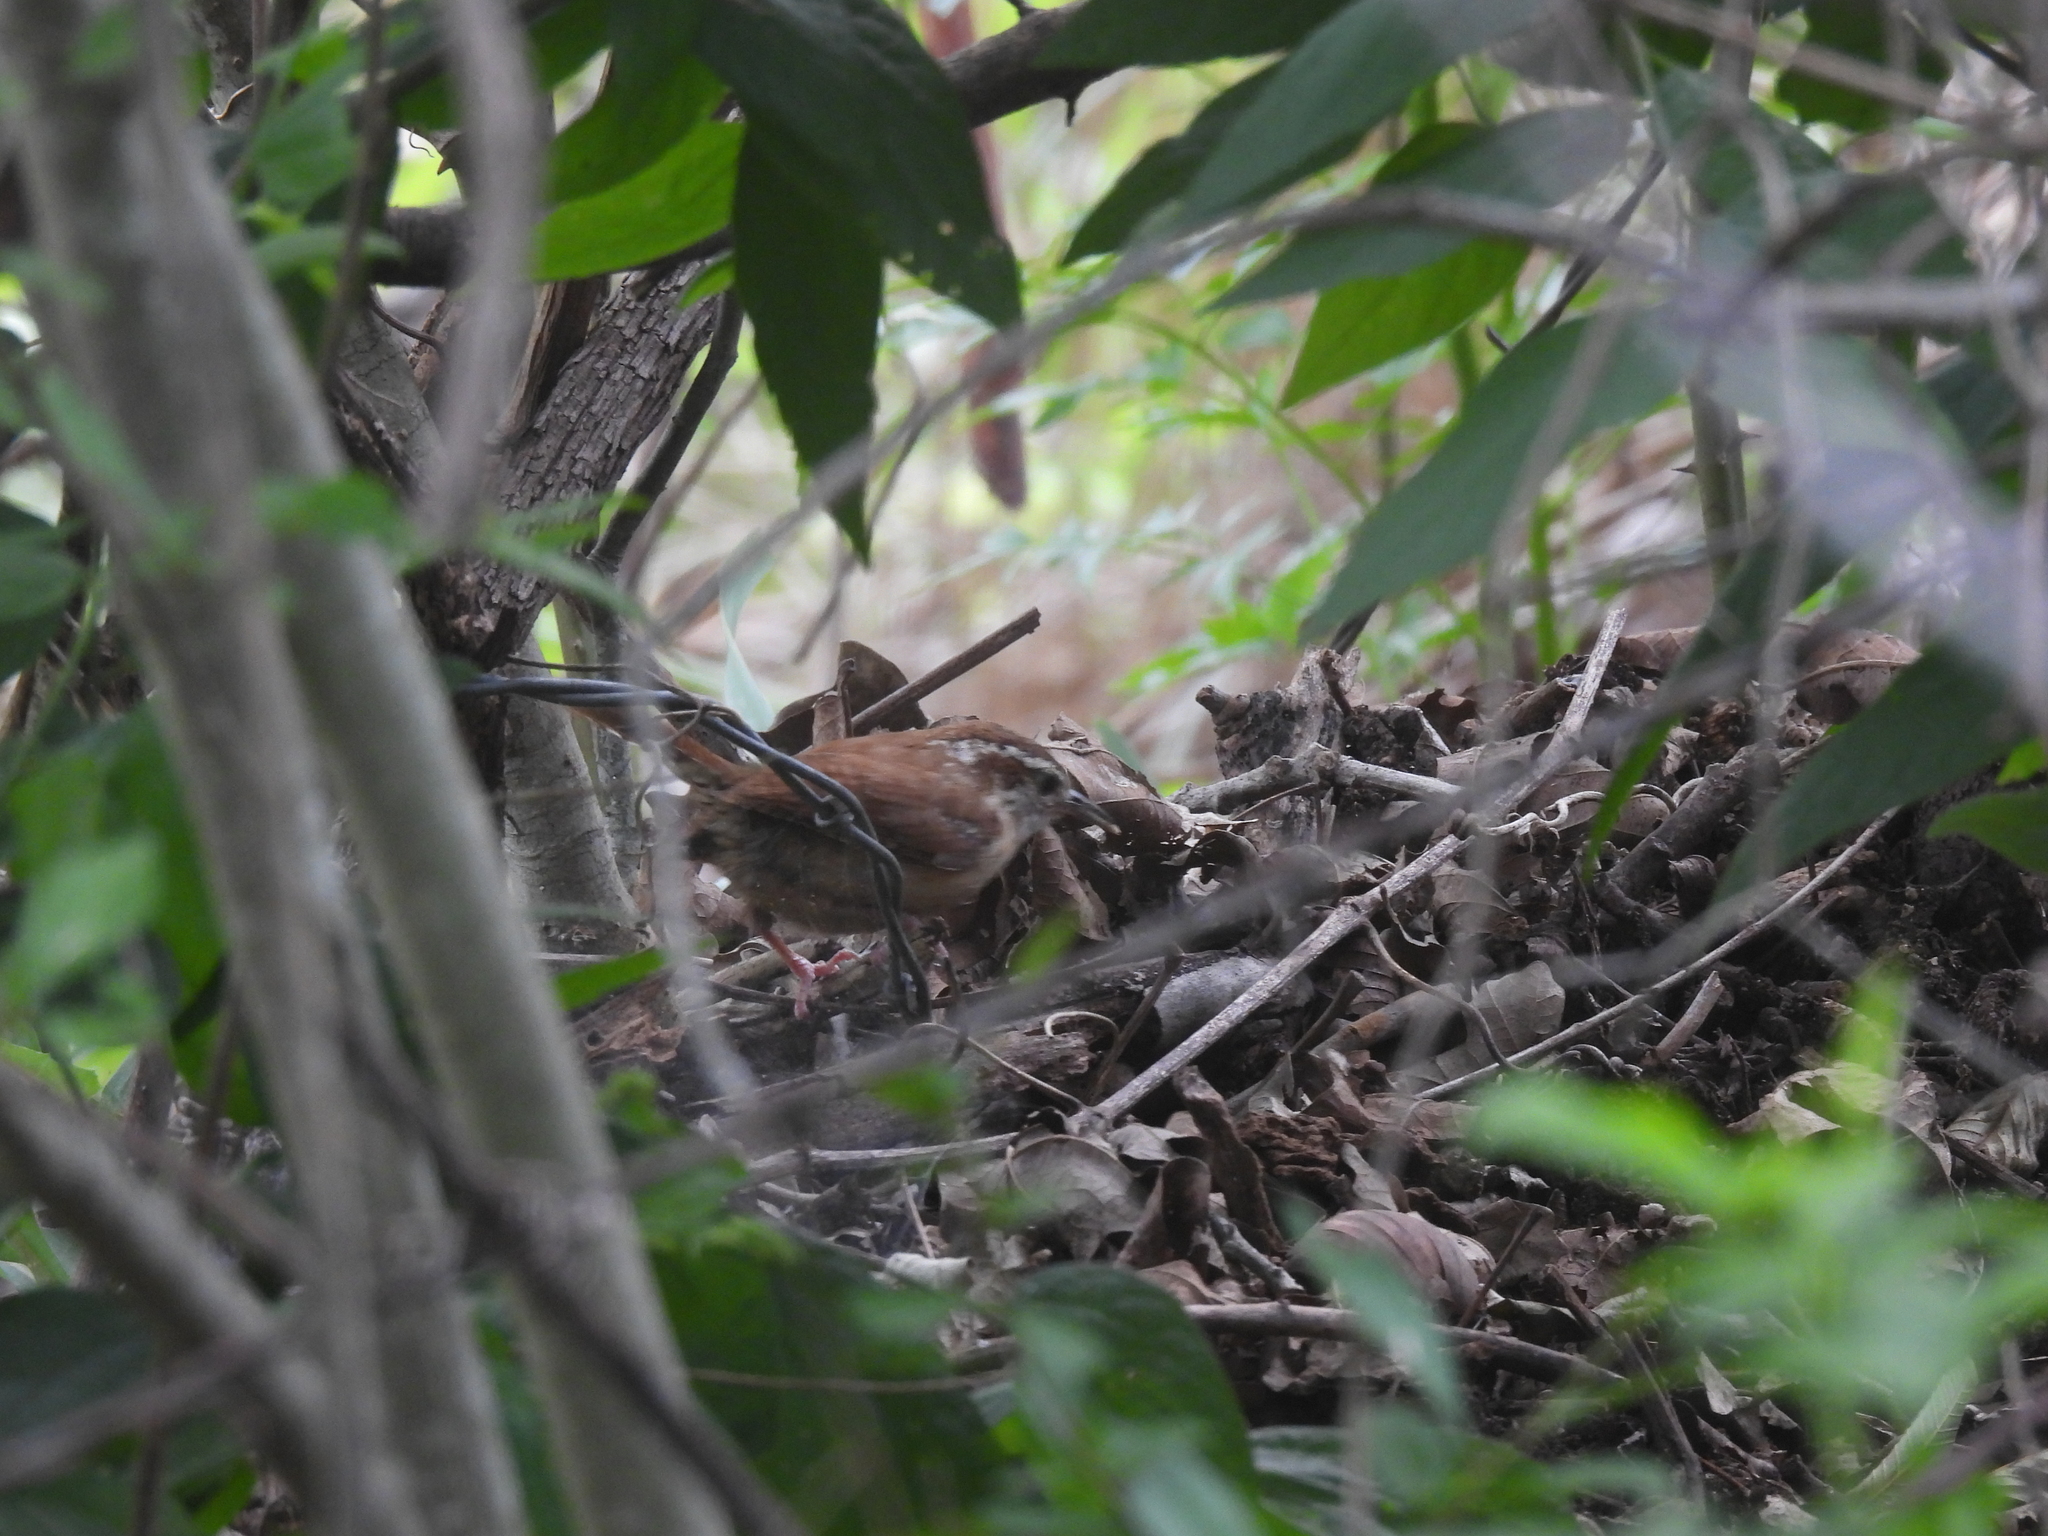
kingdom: Animalia
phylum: Chordata
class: Aves
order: Passeriformes
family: Troglodytidae
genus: Thryothorus
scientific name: Thryothorus ludovicianus
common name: Carolina wren
